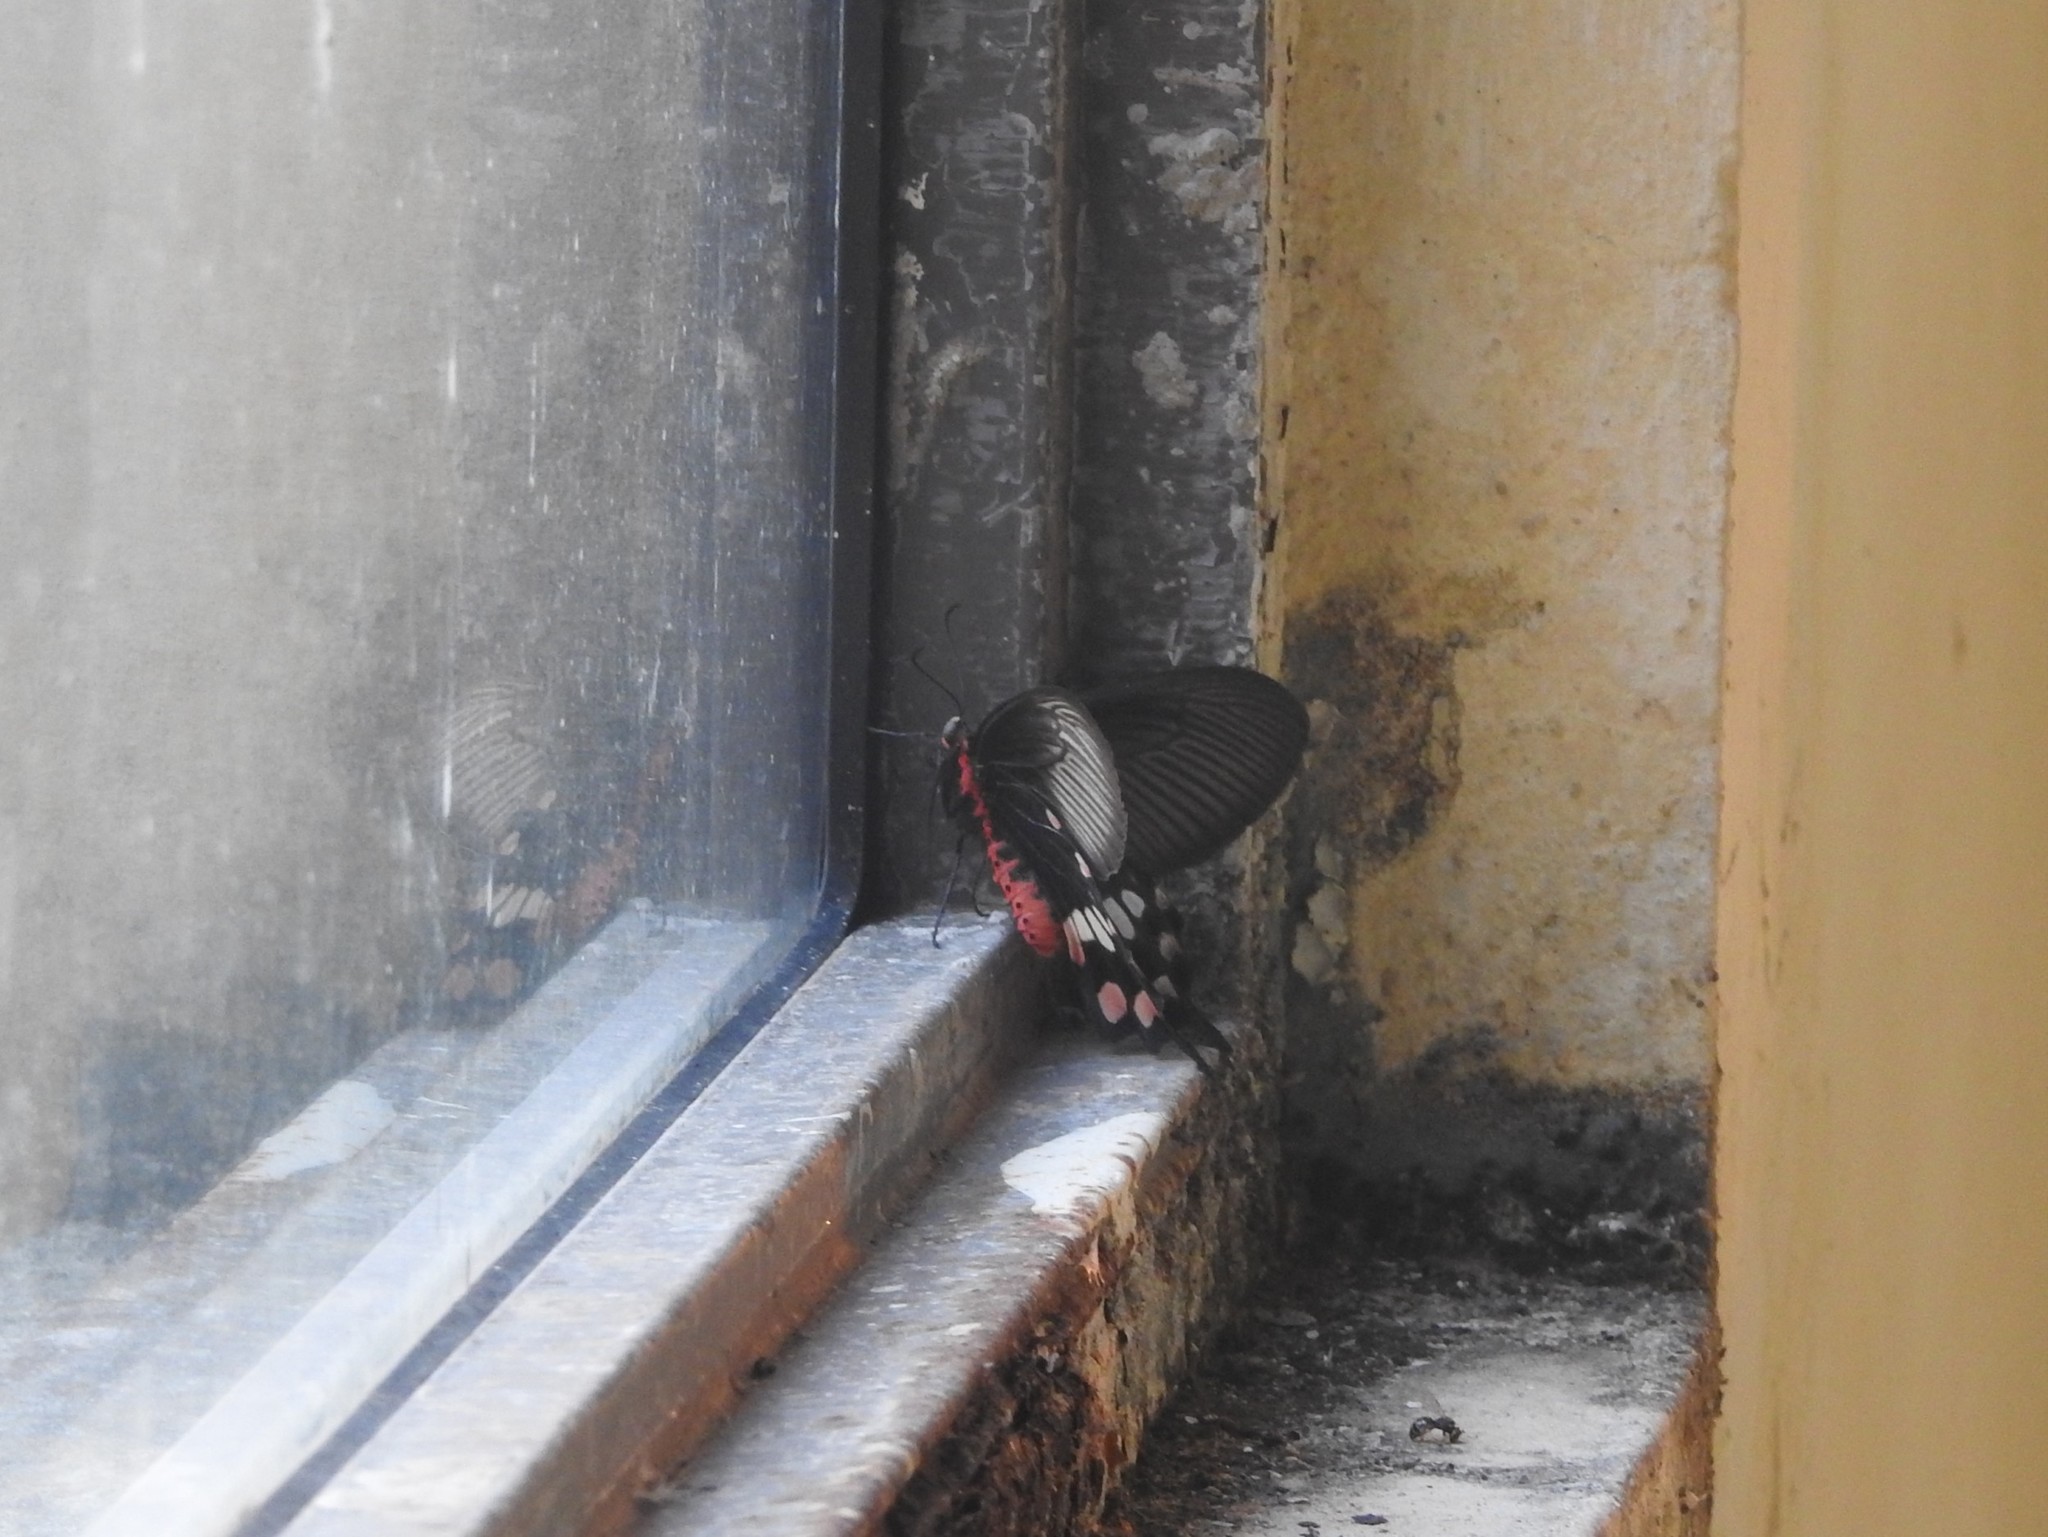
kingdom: Animalia
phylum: Arthropoda
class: Insecta
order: Lepidoptera
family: Papilionidae
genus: Pachliopta
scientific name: Pachliopta aristolochiae
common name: Common rose
